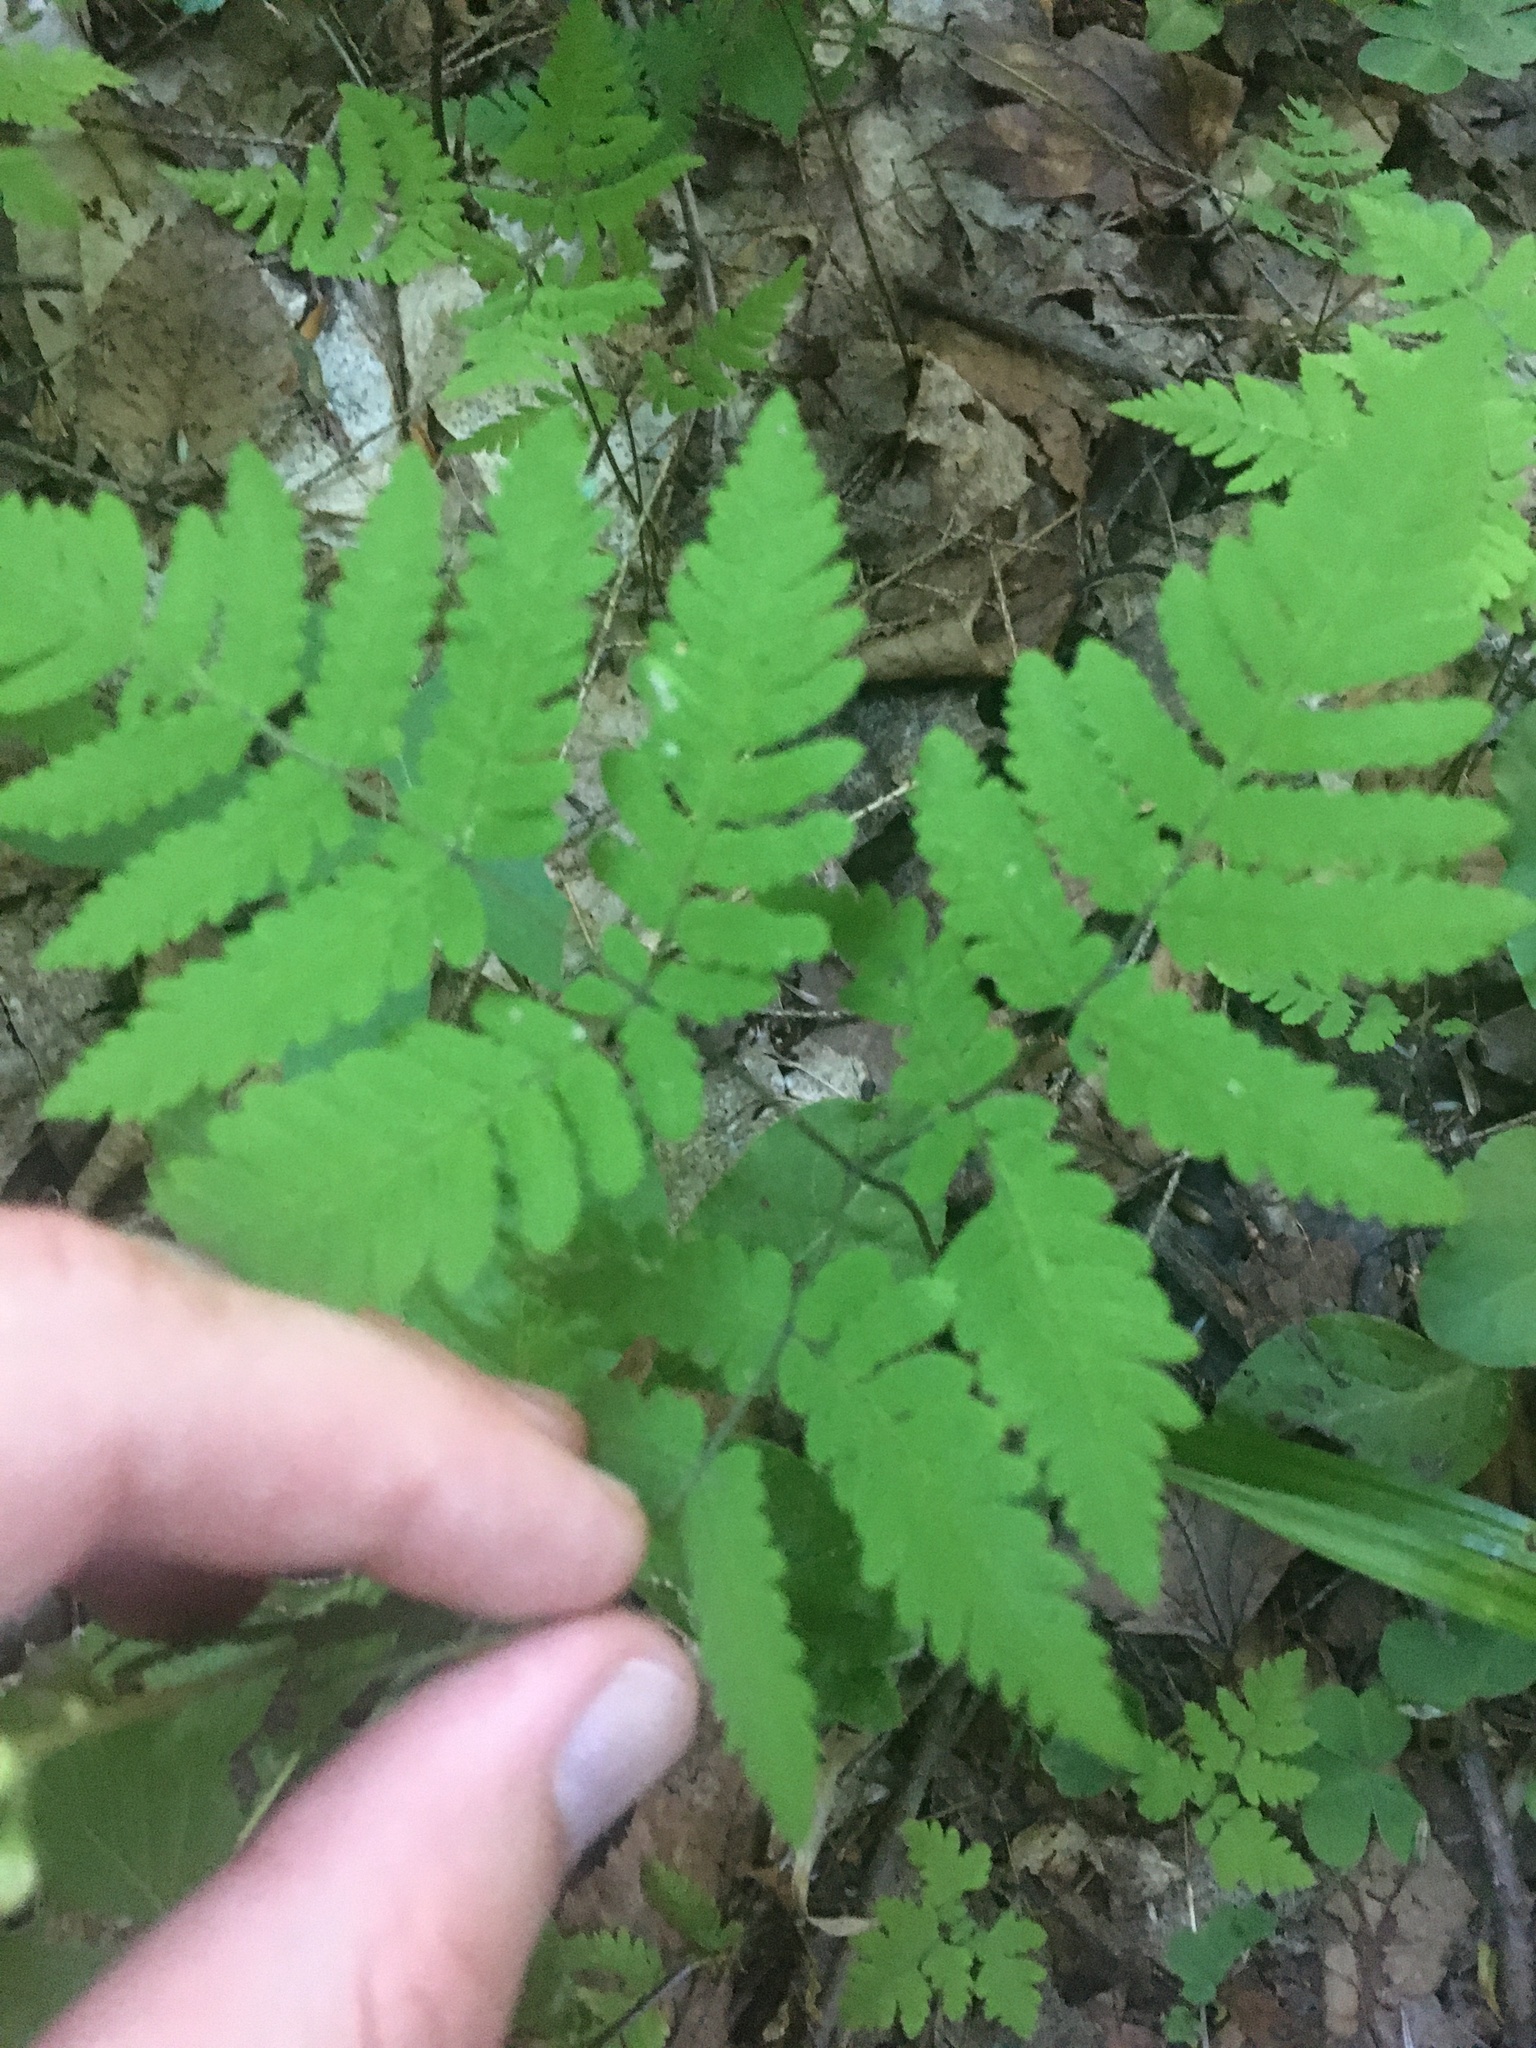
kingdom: Plantae
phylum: Tracheophyta
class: Polypodiopsida
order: Polypodiales
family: Cystopteridaceae
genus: Gymnocarpium
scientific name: Gymnocarpium dryopteris
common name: Oak fern
